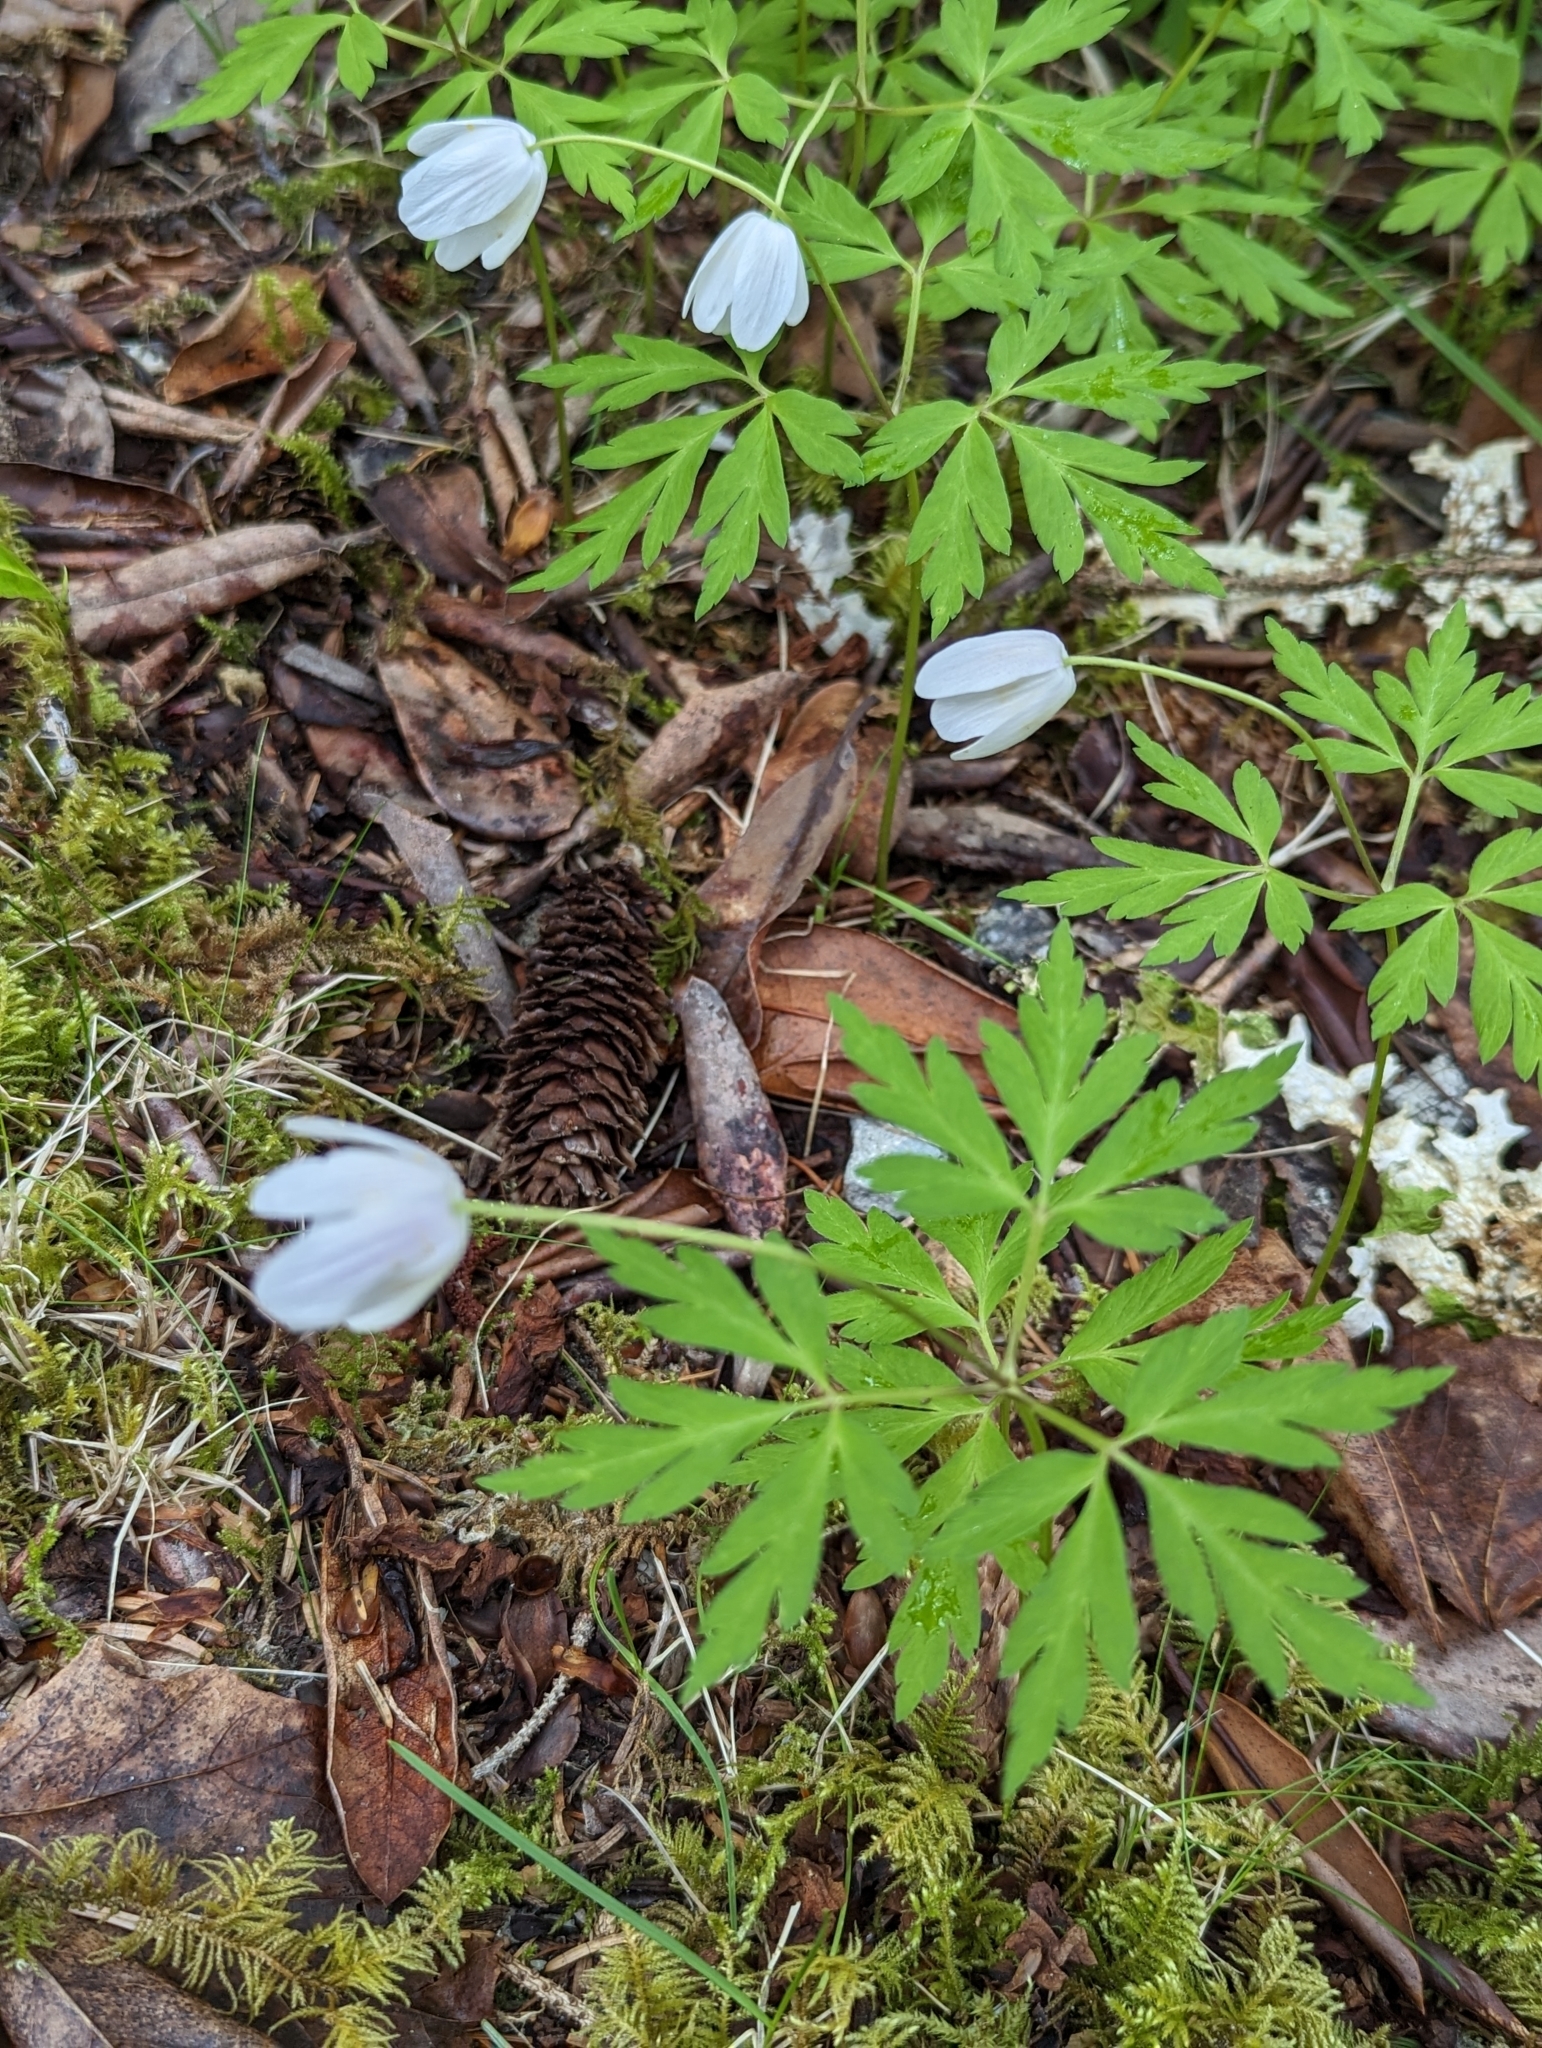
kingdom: Plantae
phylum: Tracheophyta
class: Magnoliopsida
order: Ranunculales
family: Ranunculaceae
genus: Anemone
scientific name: Anemone nemorosa
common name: Wood anemone
